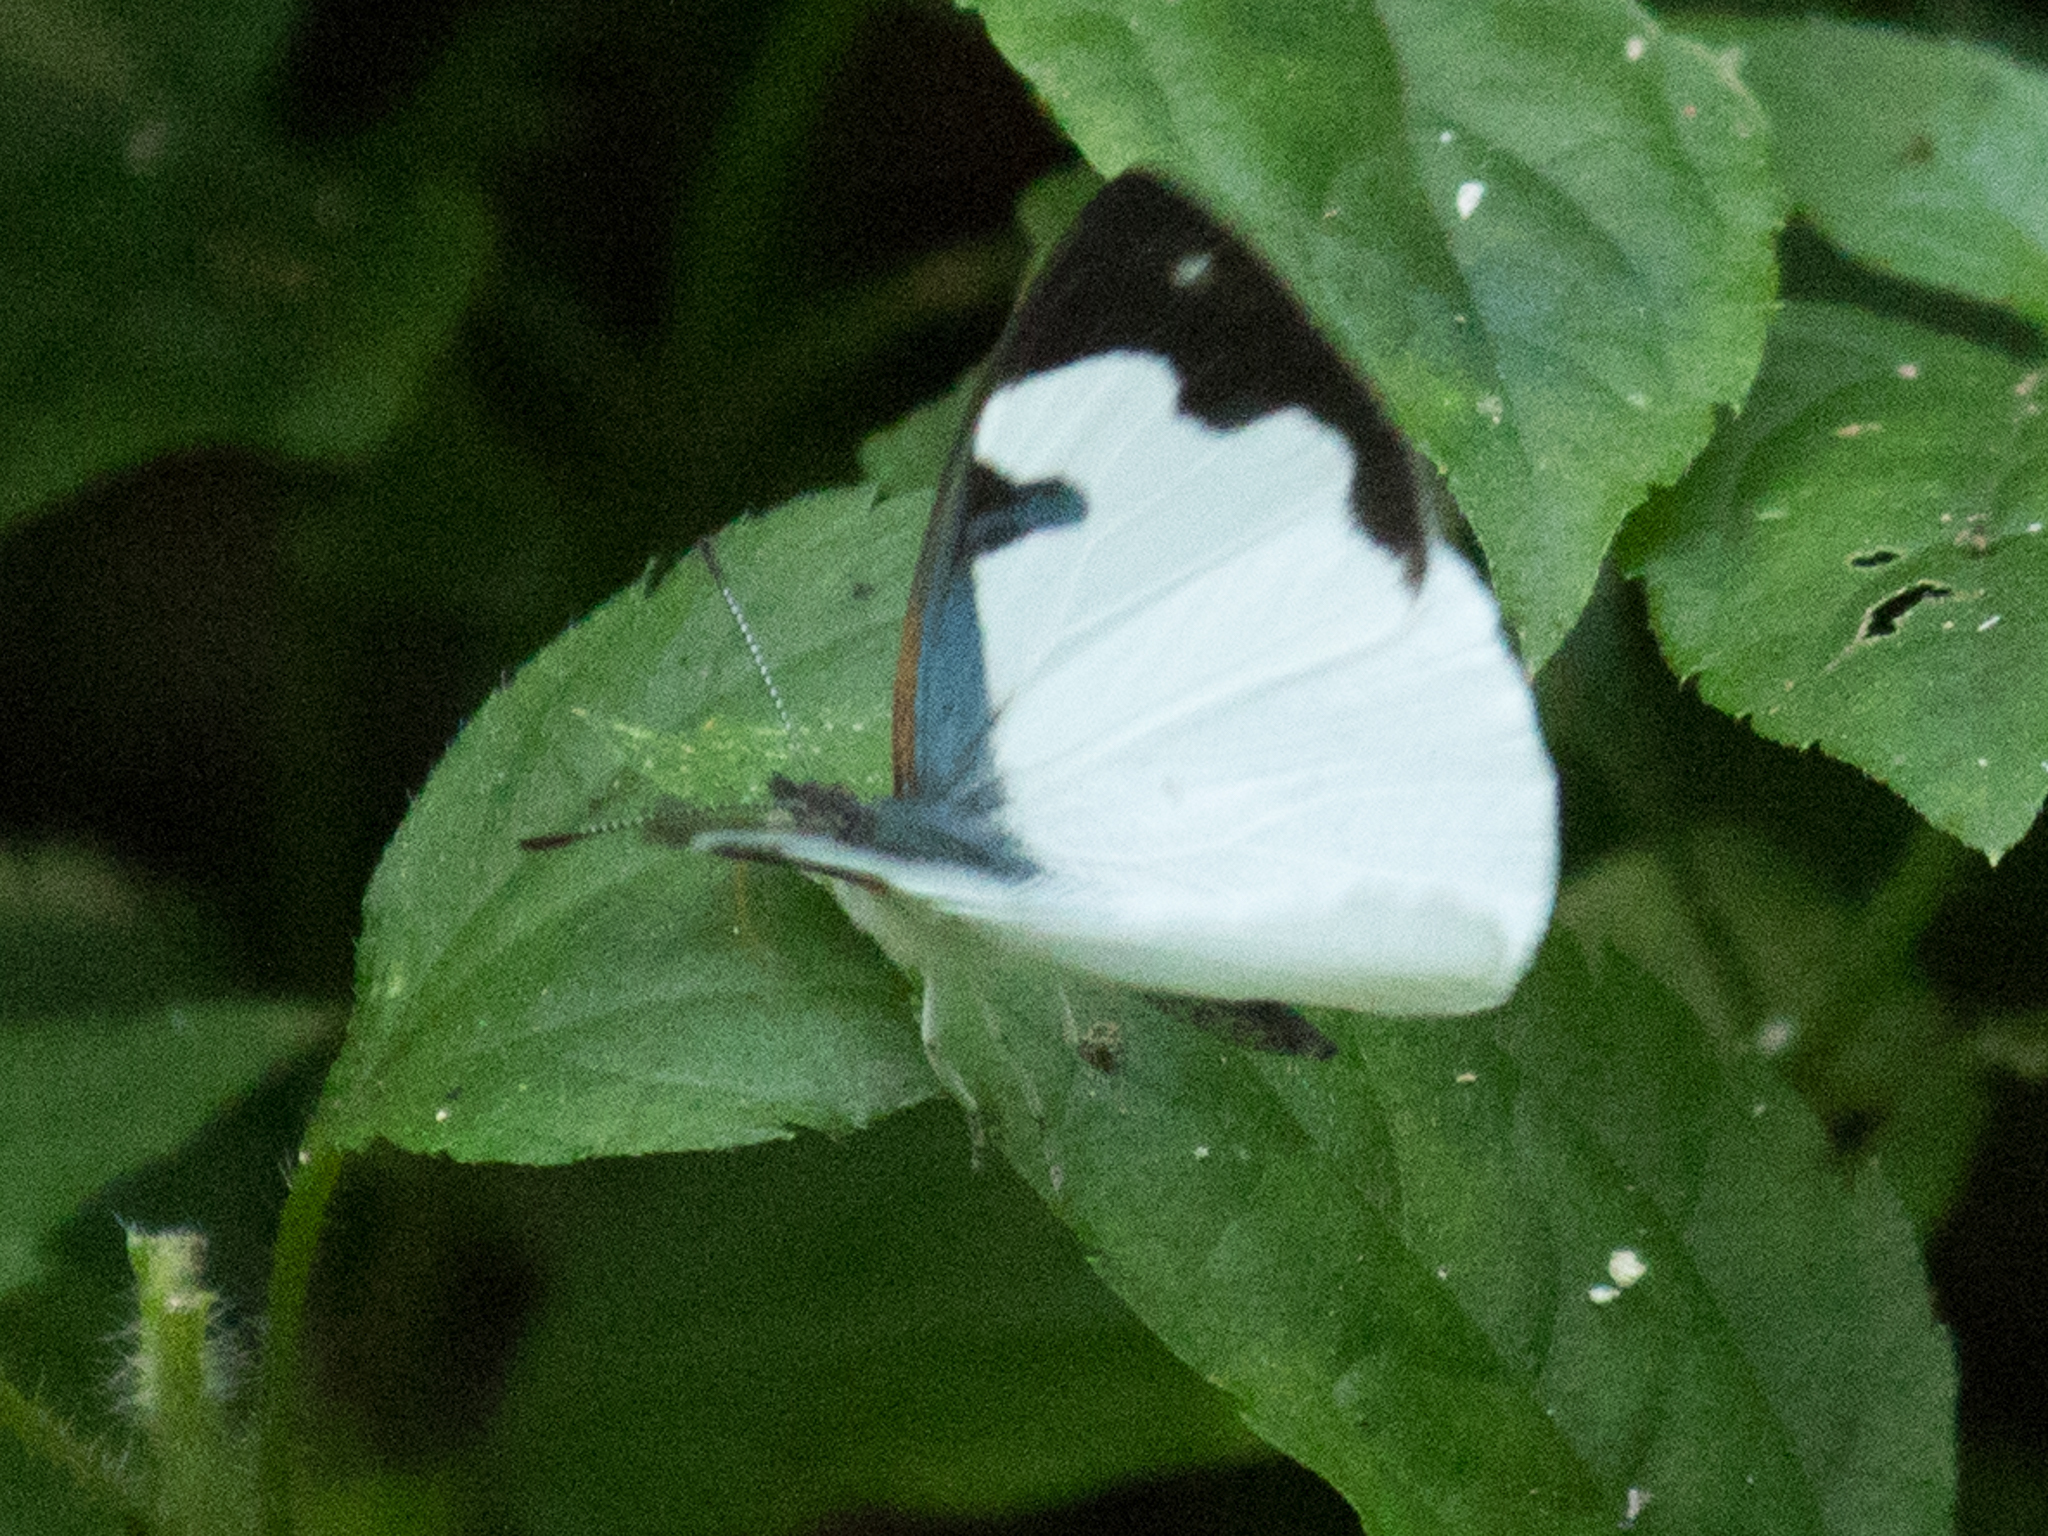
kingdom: Animalia
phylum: Arthropoda
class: Insecta
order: Lepidoptera
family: Nymphalidae
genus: Dynamine
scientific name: Dynamine myrrhina
